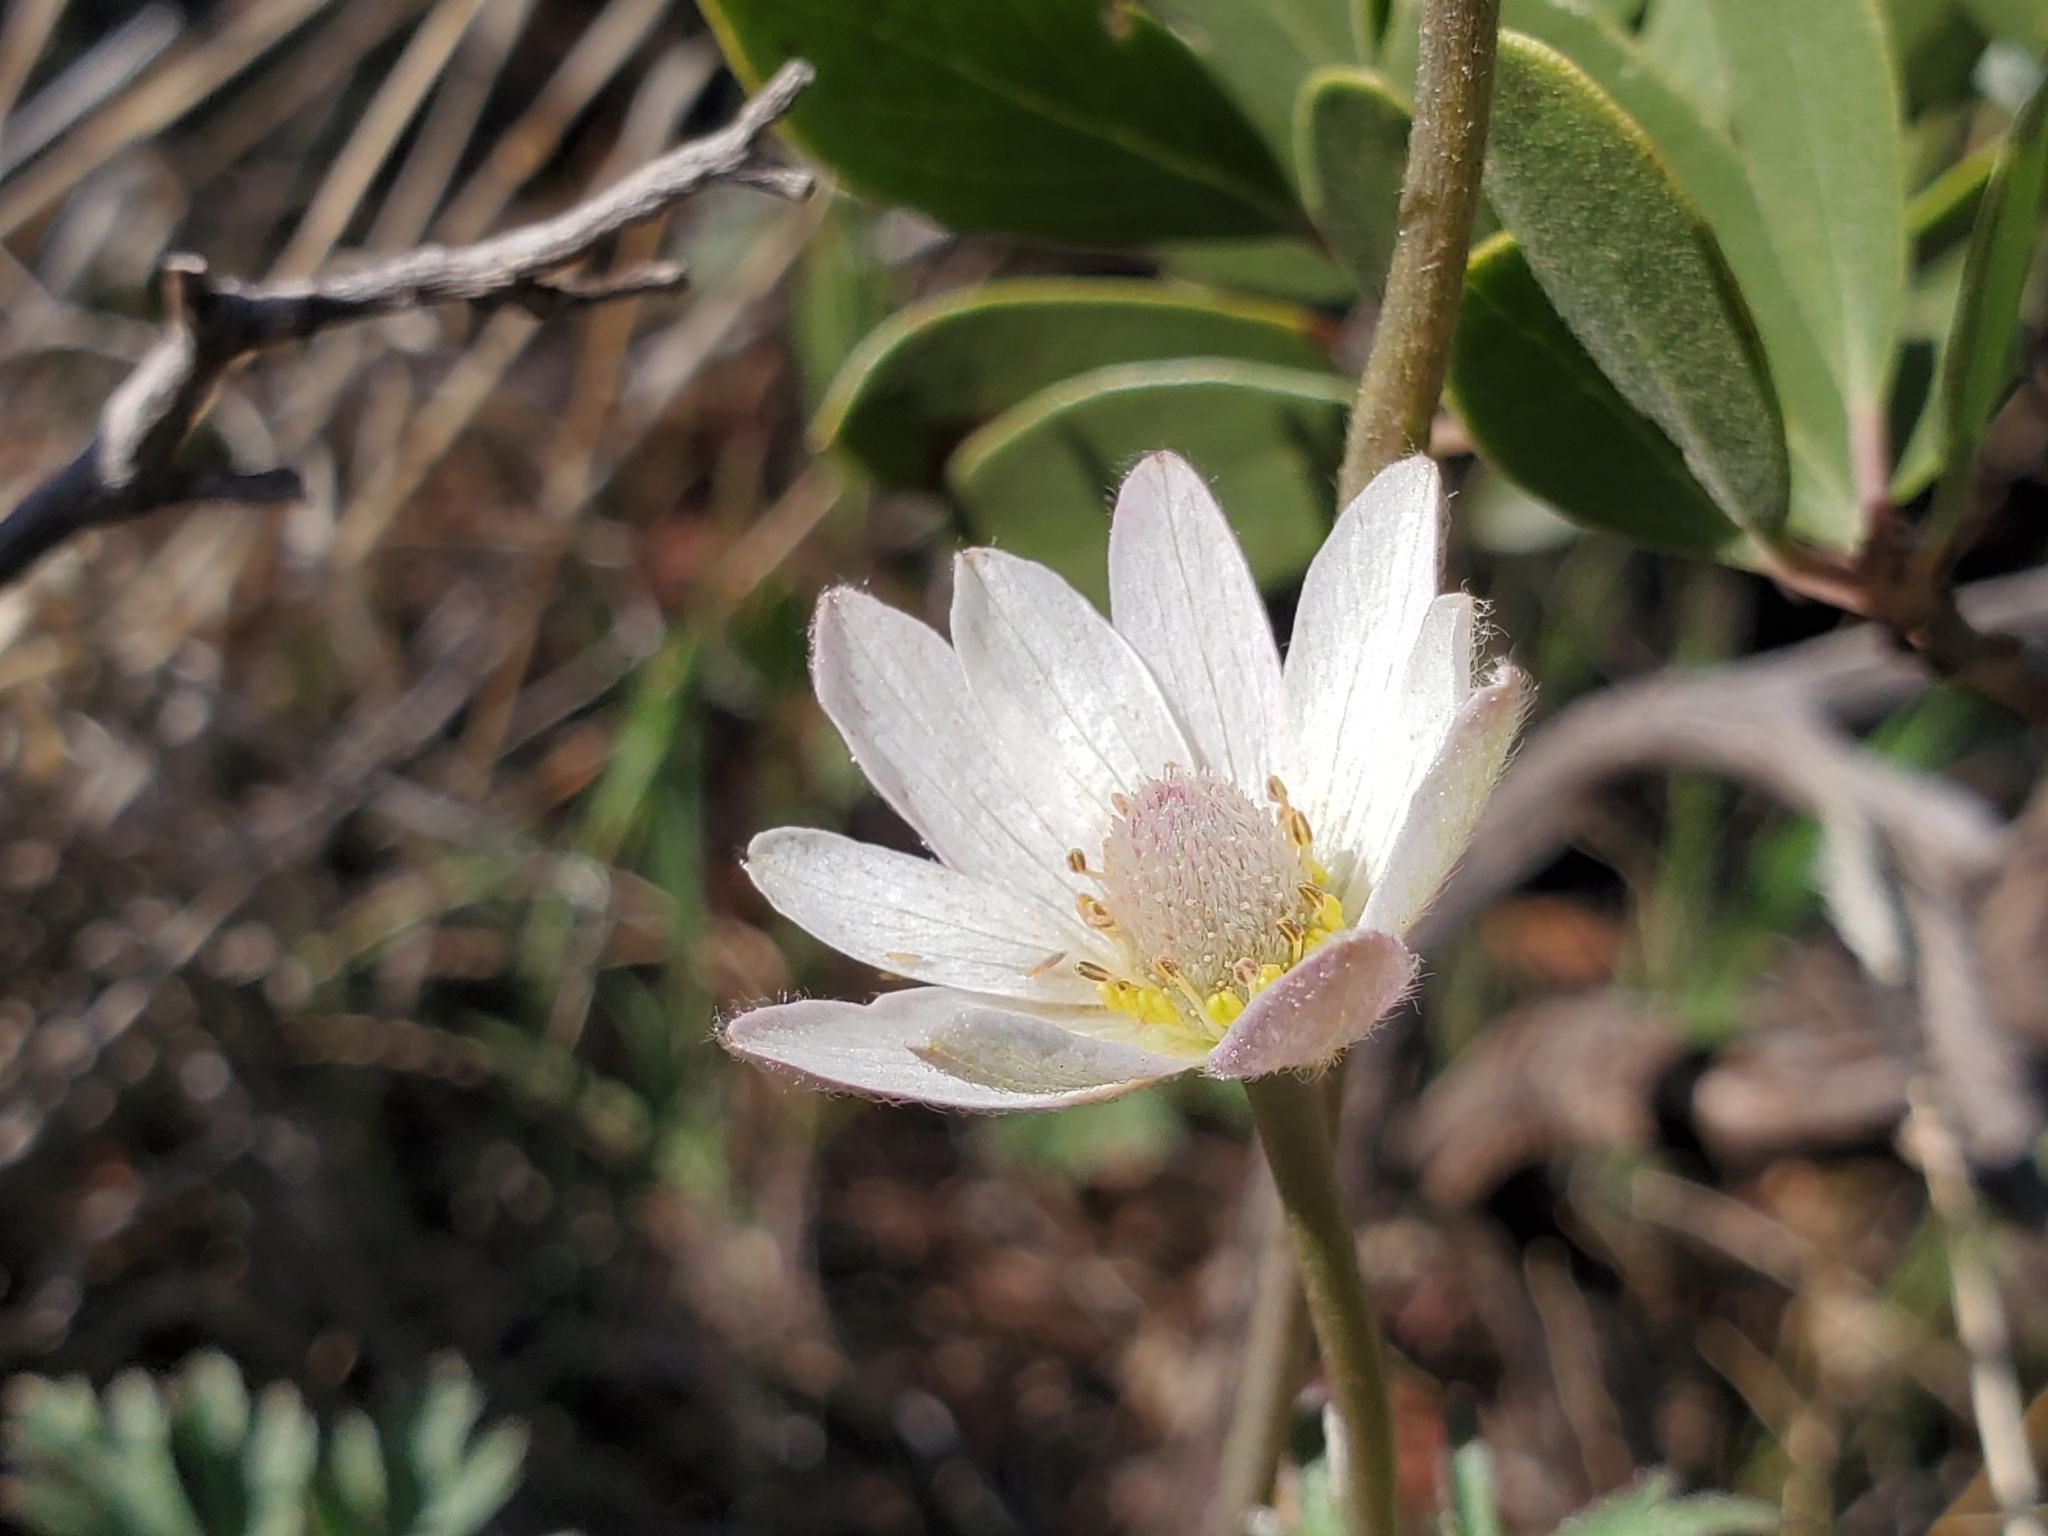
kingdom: Plantae
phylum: Tracheophyta
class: Magnoliopsida
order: Ranunculales
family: Ranunculaceae
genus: Anemone
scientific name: Anemone tuberosa
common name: Desert anemone
